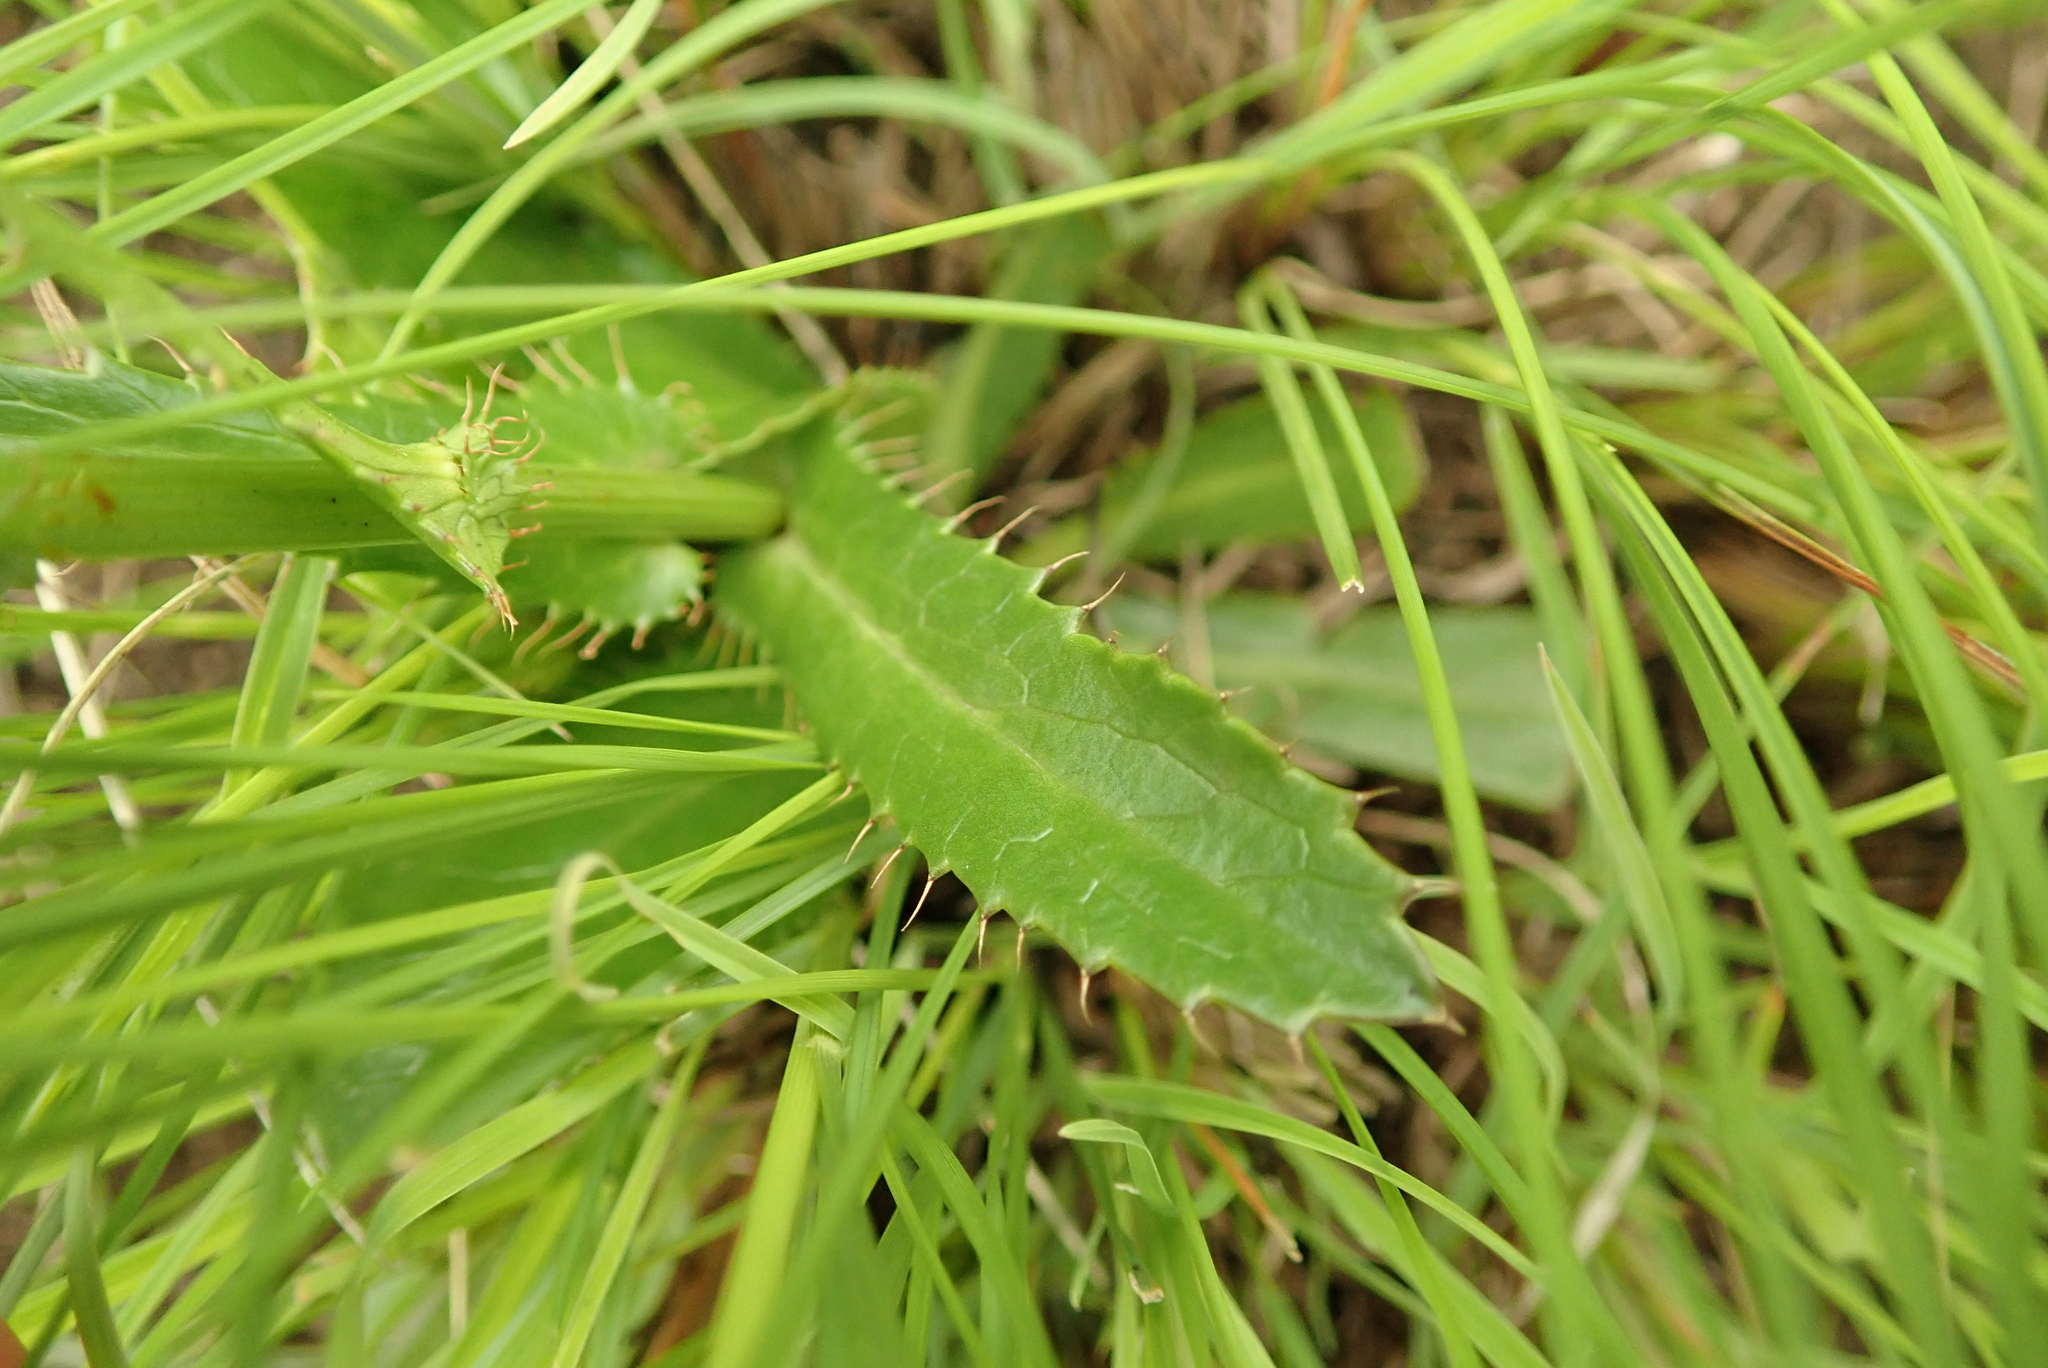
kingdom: Plantae
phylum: Tracheophyta
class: Magnoliopsida
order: Apiales
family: Apiaceae
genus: Alepidea
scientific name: Alepidea peduncularis
